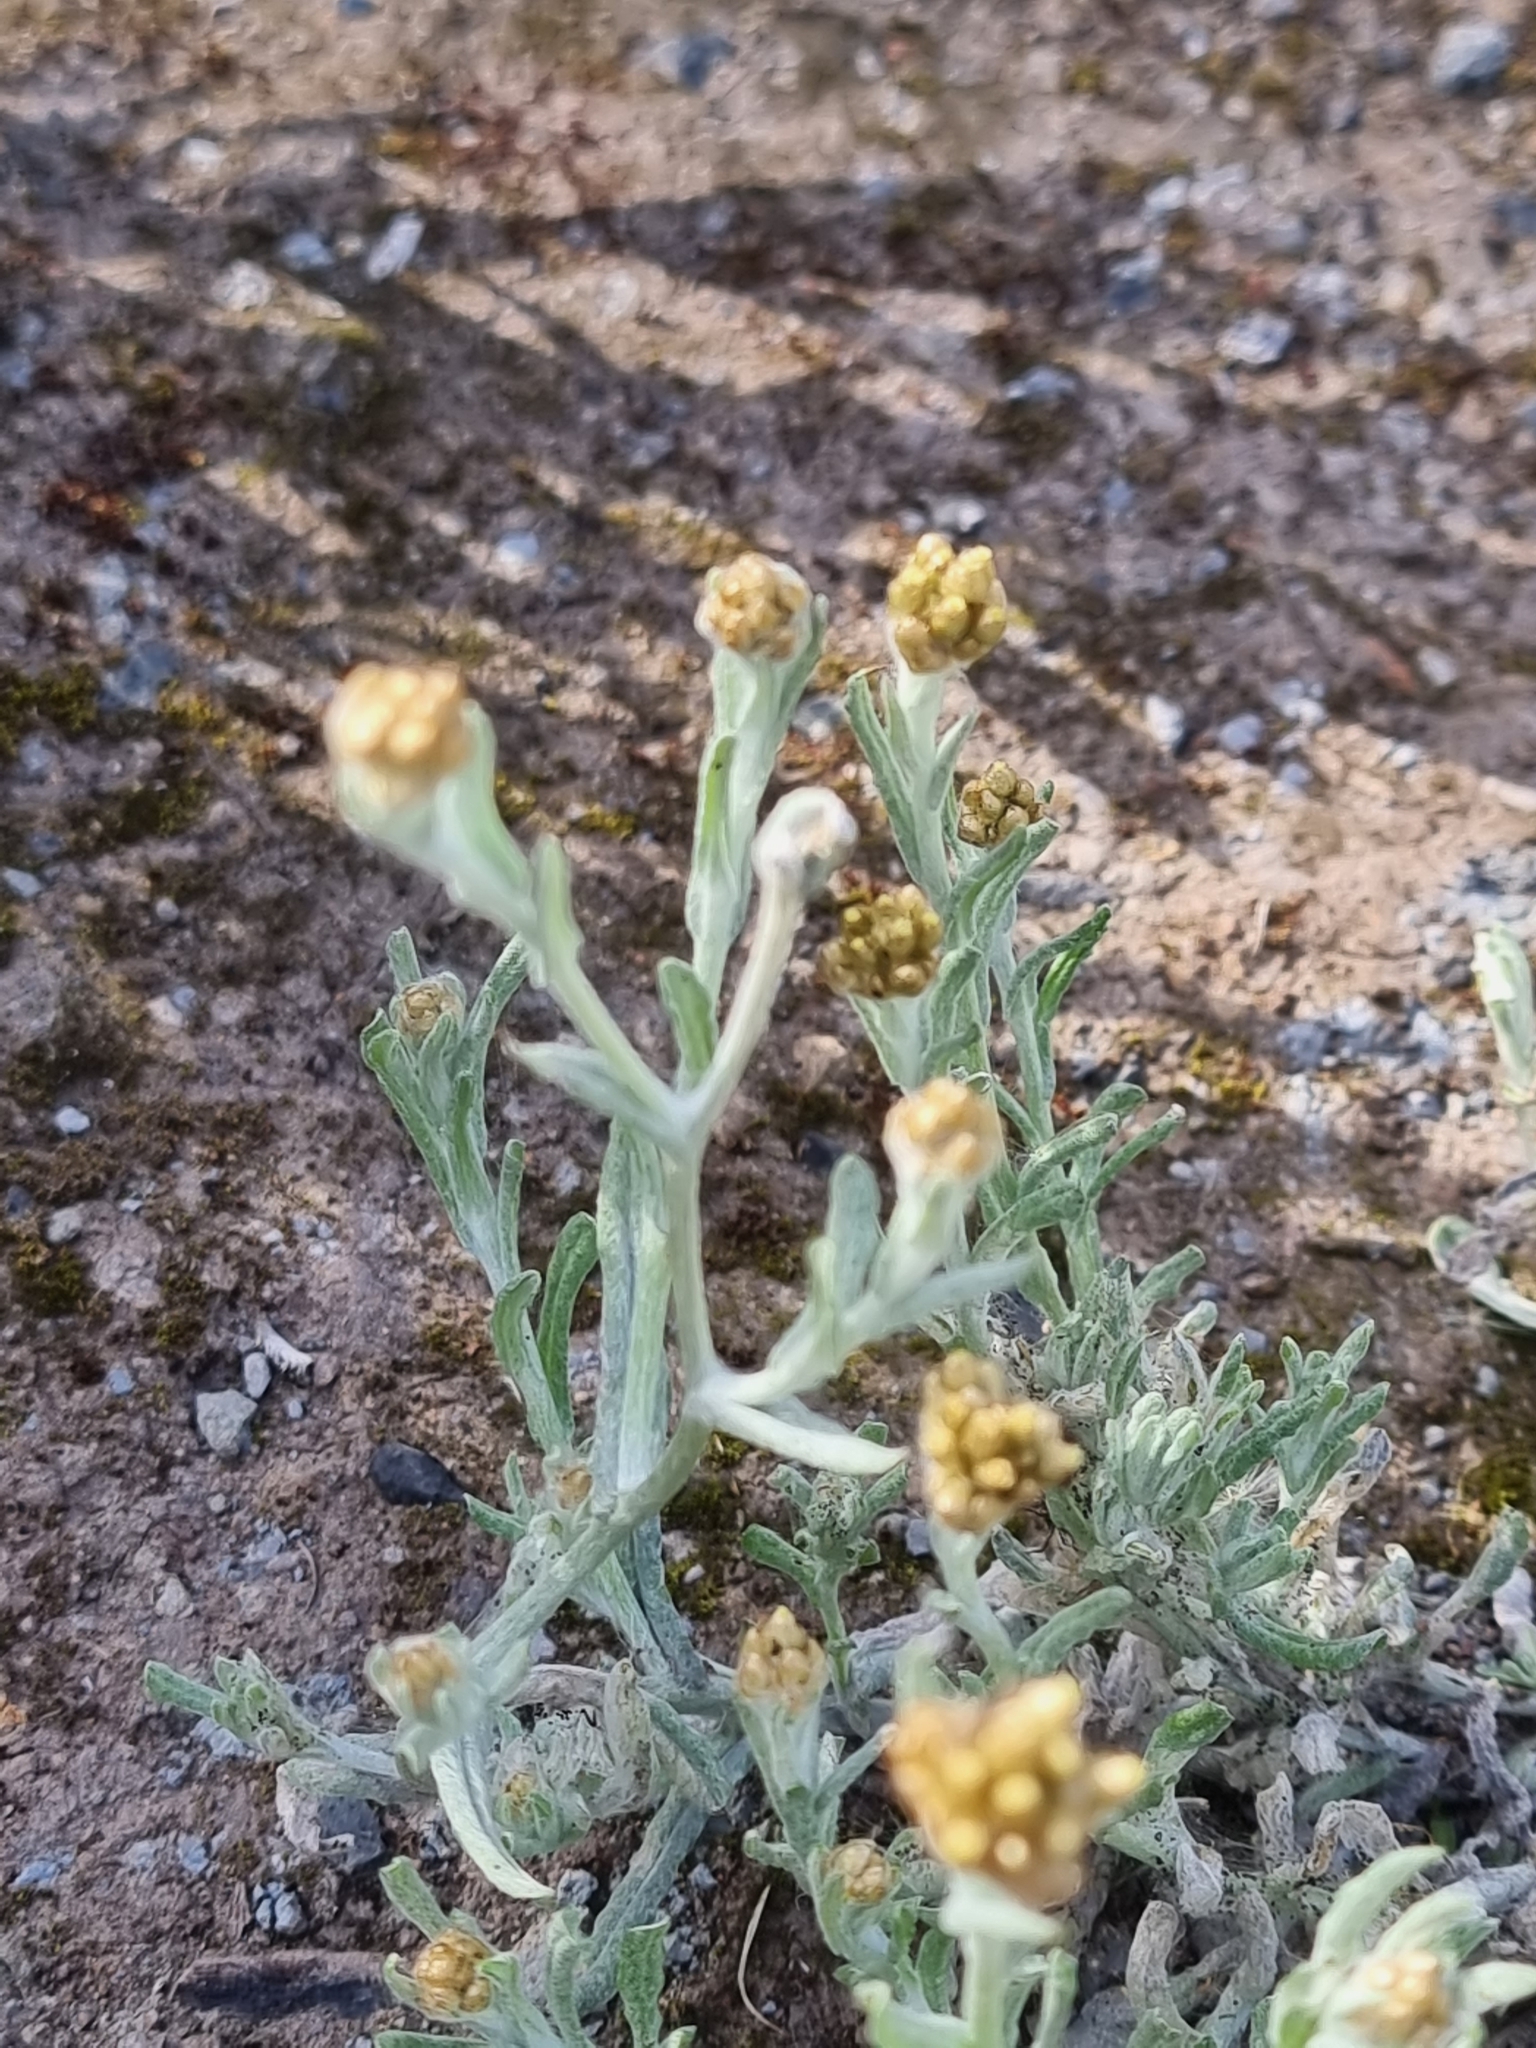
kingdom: Plantae
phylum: Tracheophyta
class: Magnoliopsida
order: Asterales
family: Asteraceae
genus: Helichrysum
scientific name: Helichrysum luteoalbum
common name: Daisy
